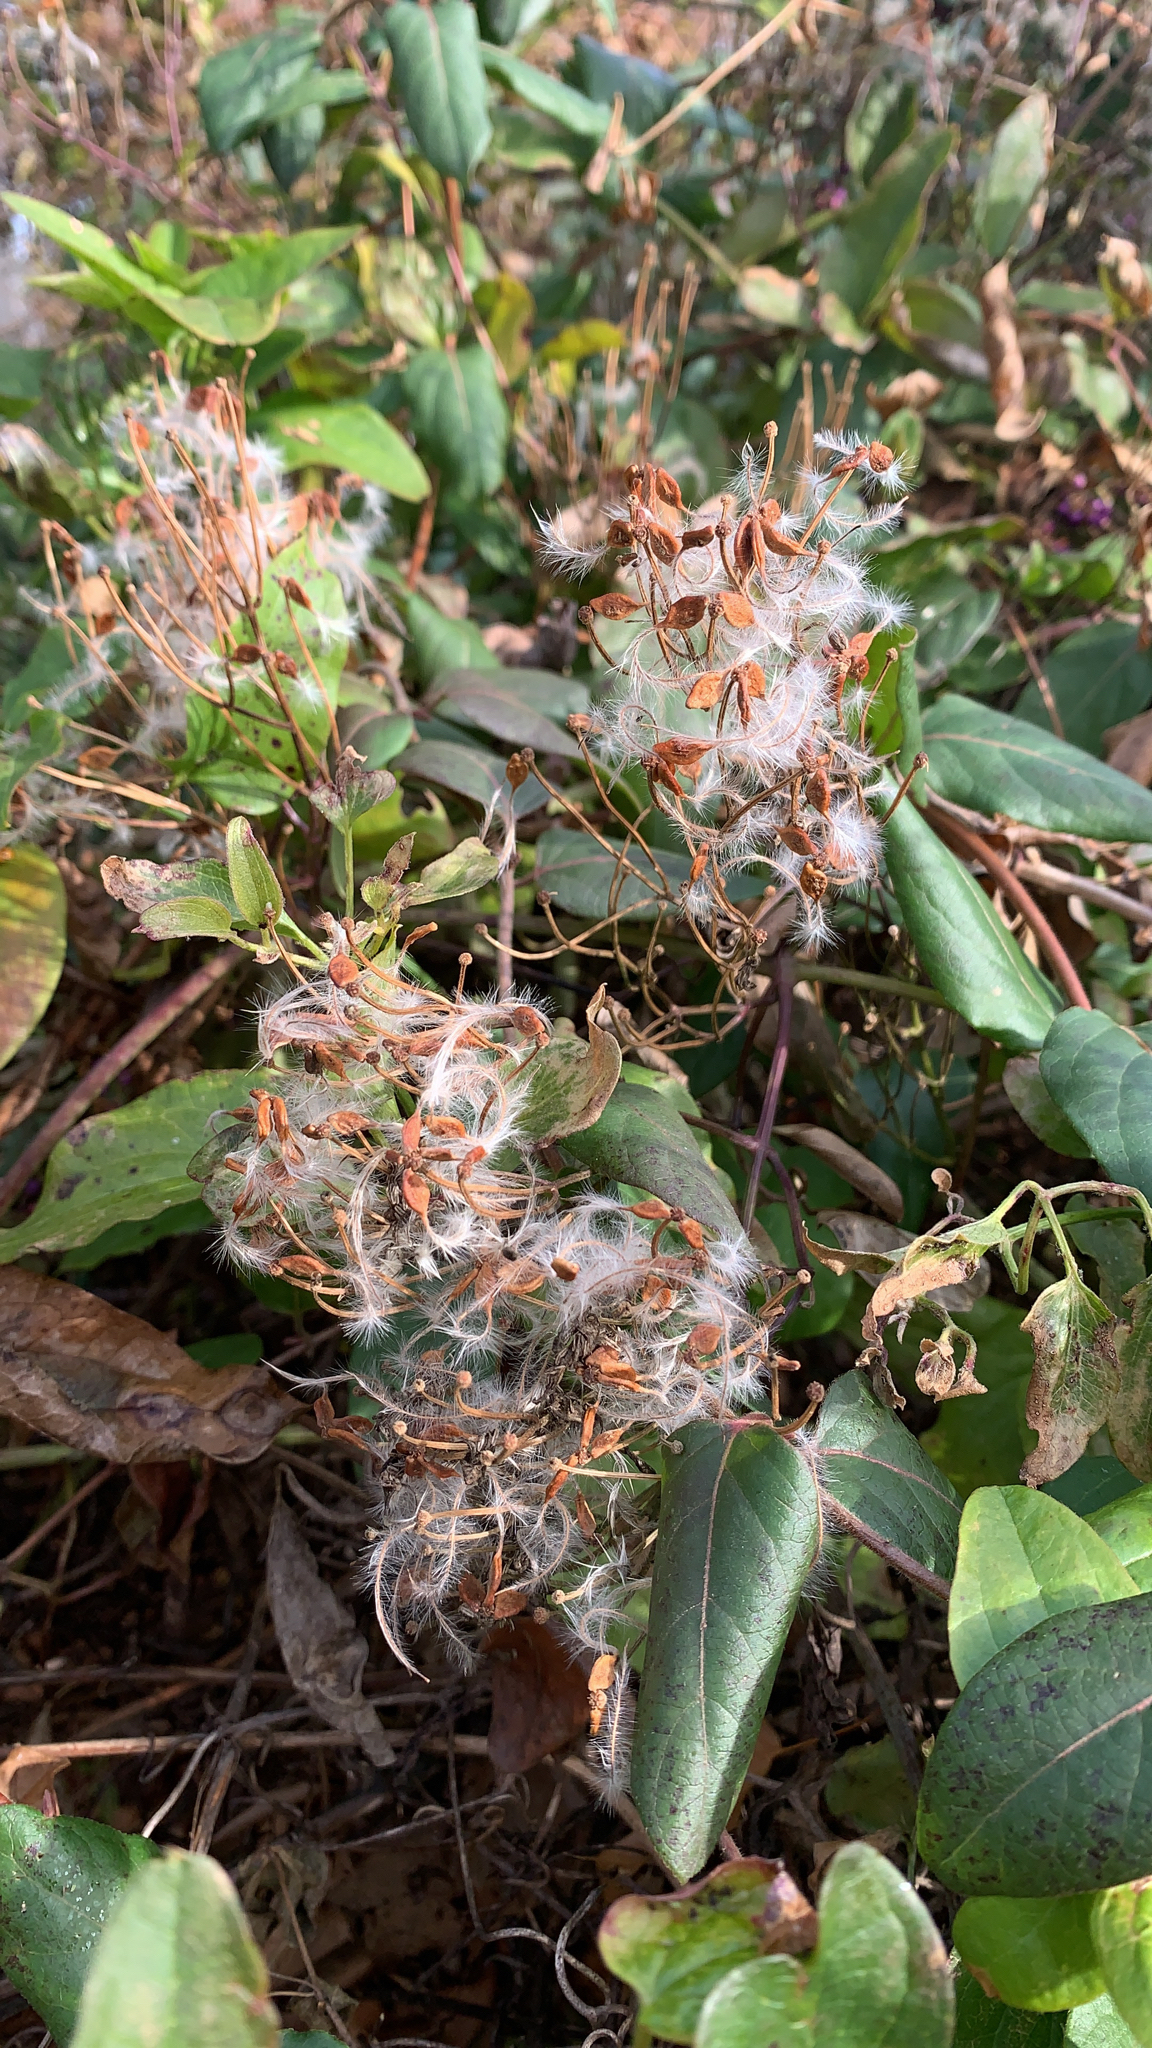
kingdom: Plantae
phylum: Tracheophyta
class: Magnoliopsida
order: Ranunculales
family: Ranunculaceae
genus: Clematis
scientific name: Clematis terniflora
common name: Sweet autumn clematis
